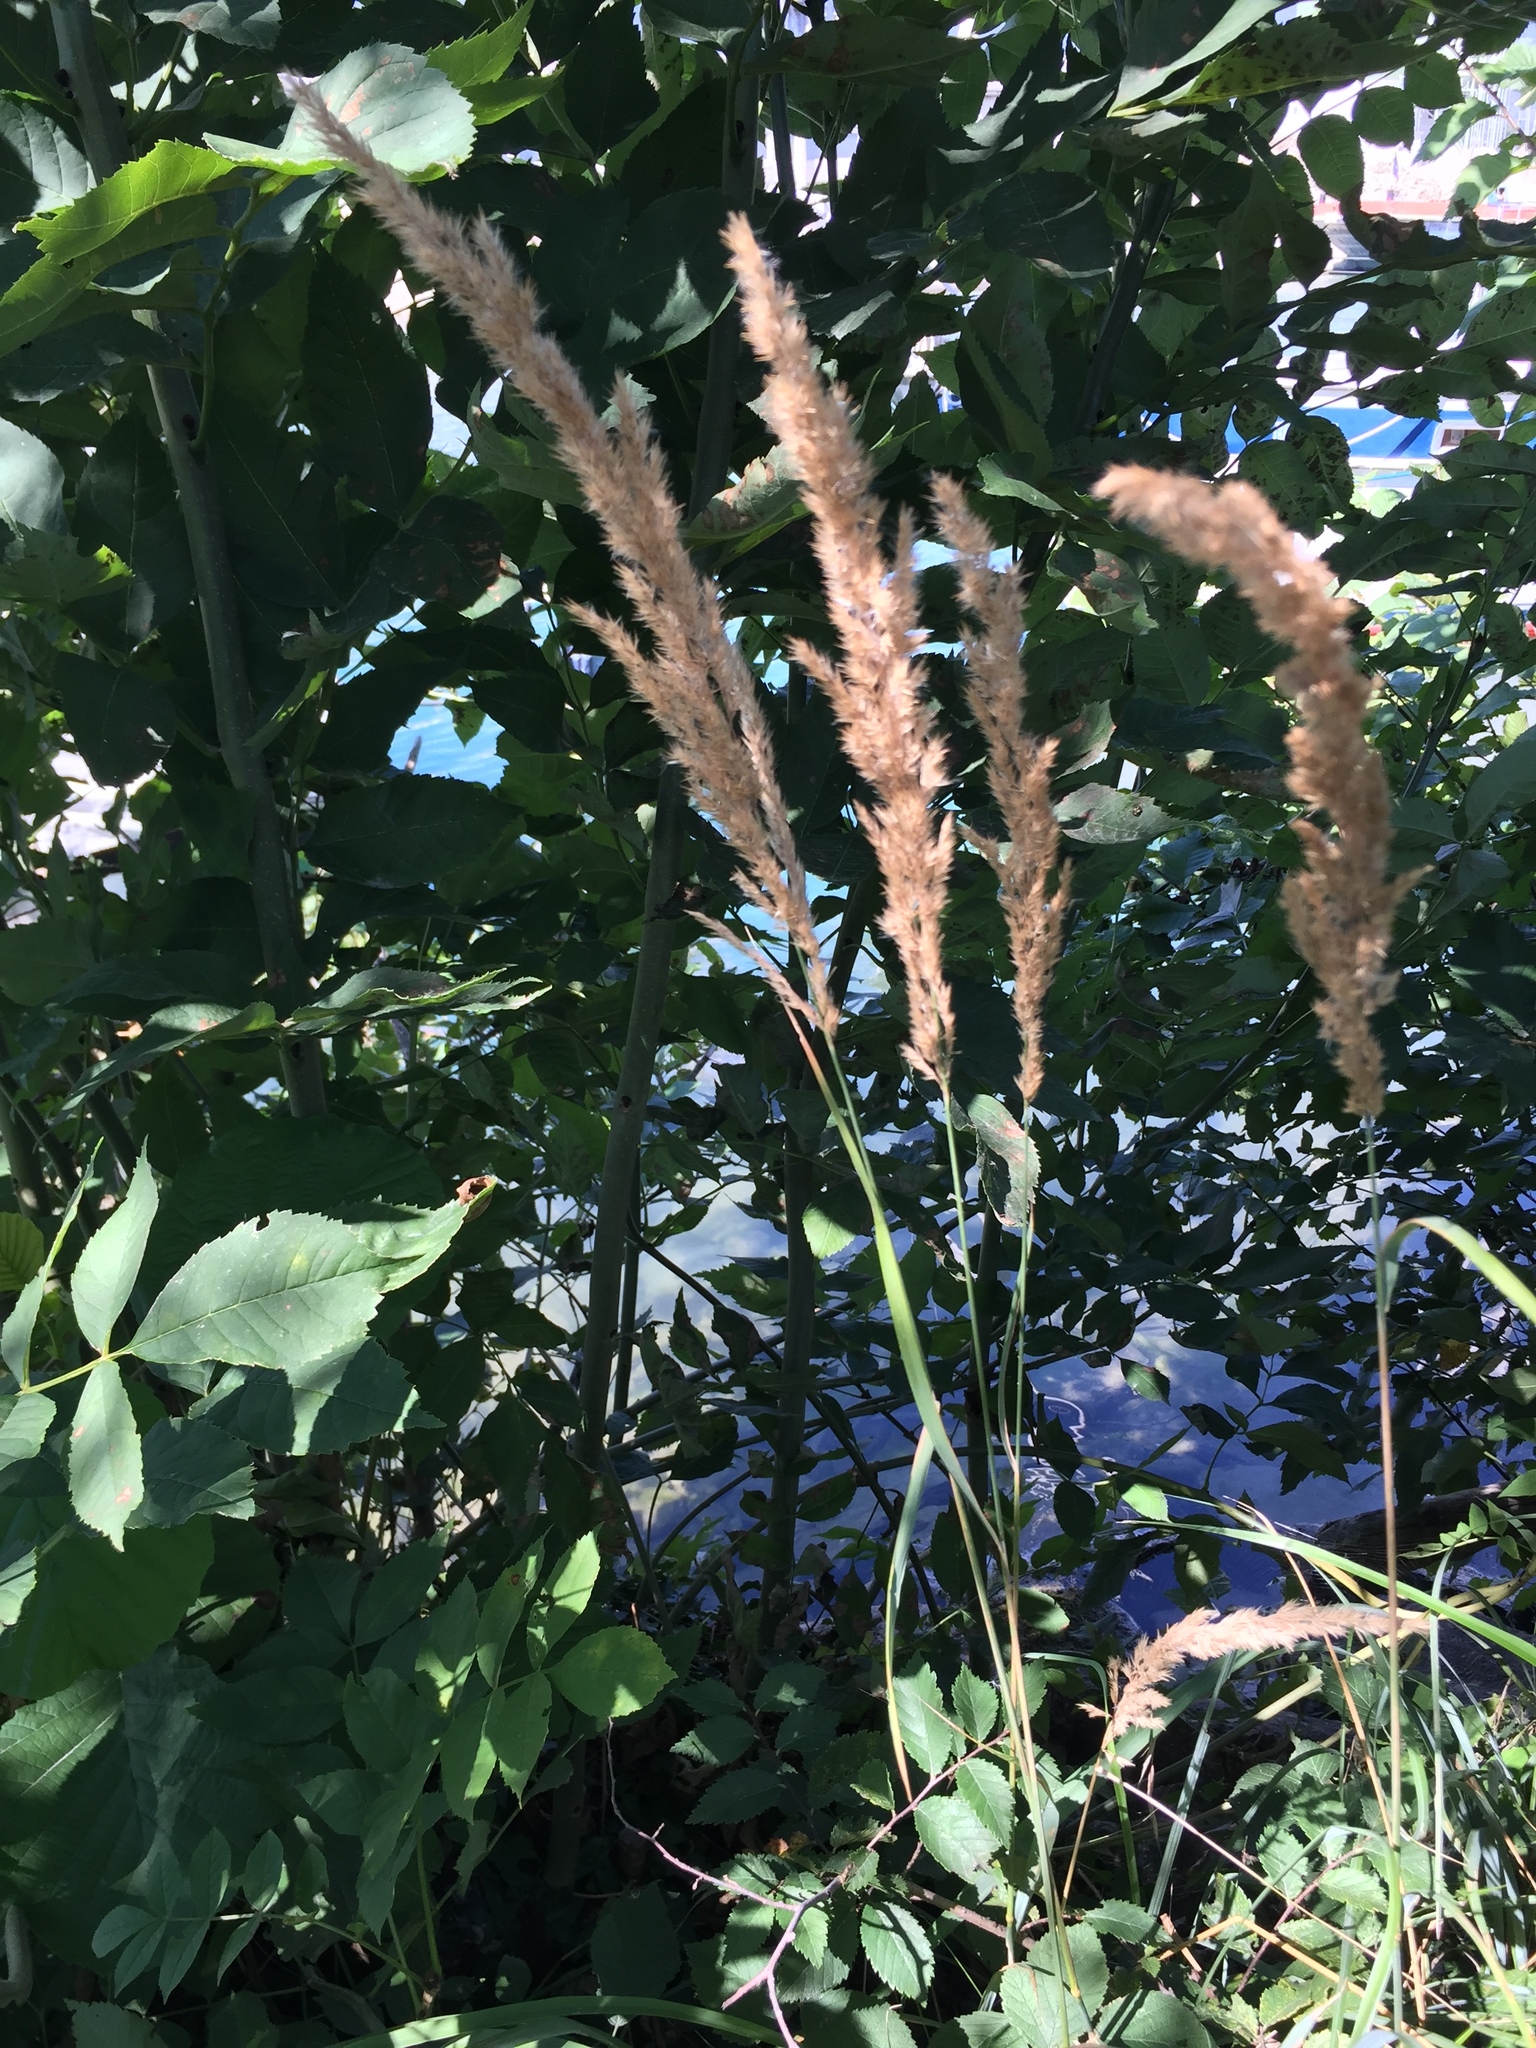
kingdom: Plantae
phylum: Tracheophyta
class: Liliopsida
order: Poales
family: Poaceae
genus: Phalaris
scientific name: Phalaris arundinacea
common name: Reed canary-grass
